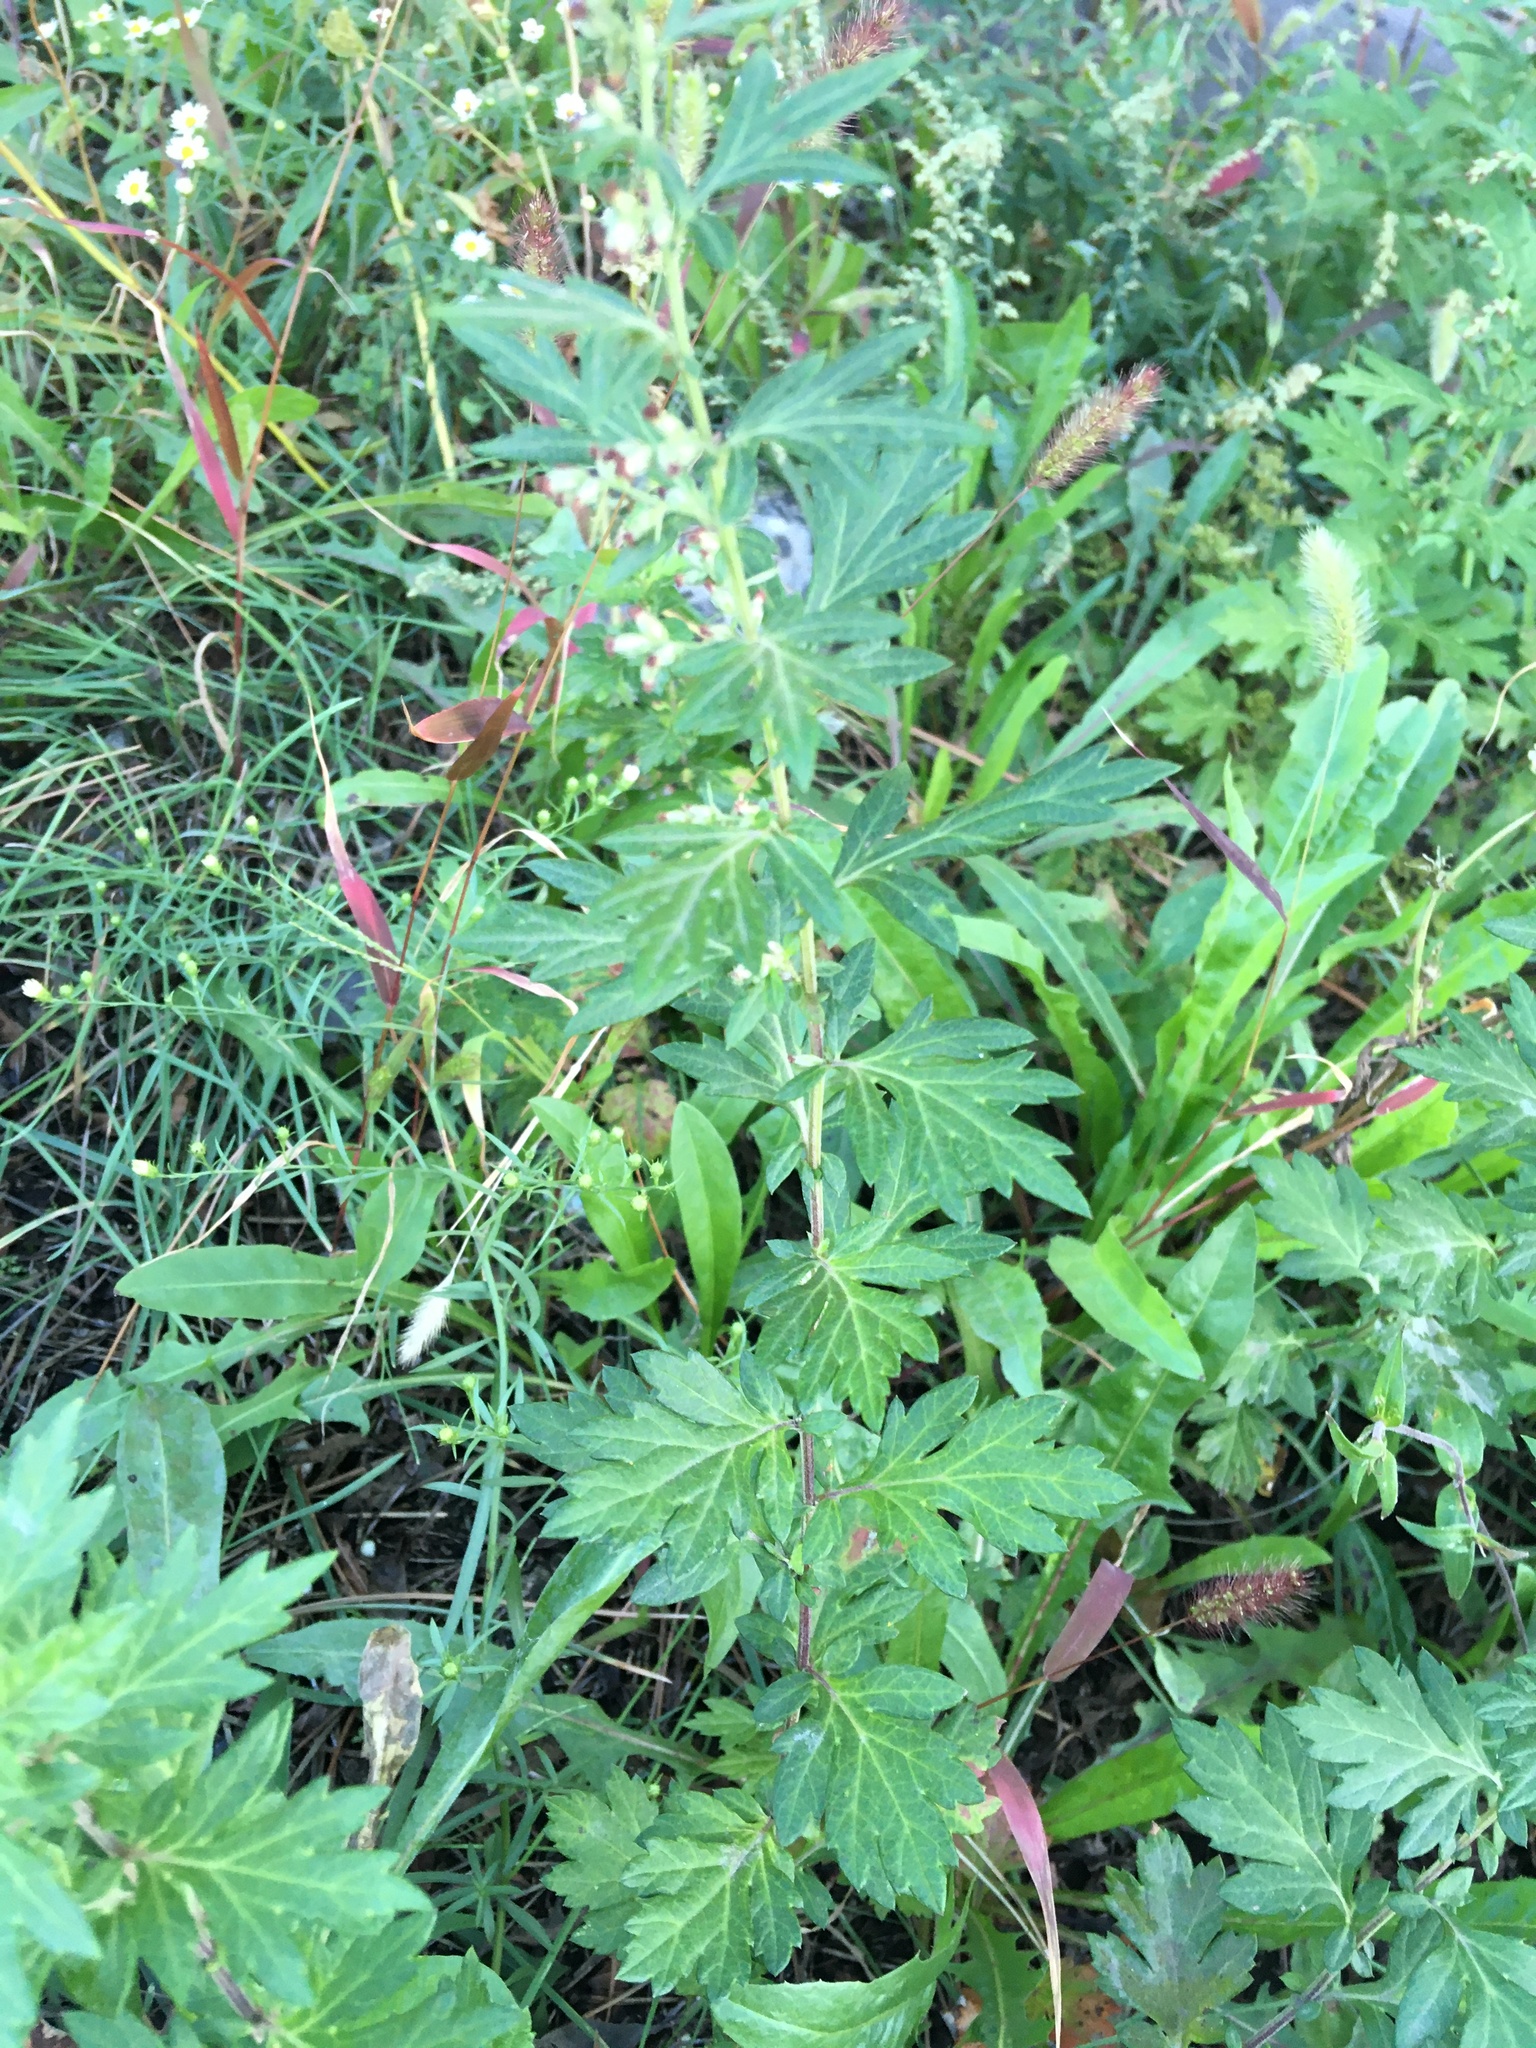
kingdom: Plantae
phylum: Tracheophyta
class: Magnoliopsida
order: Asterales
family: Asteraceae
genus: Artemisia
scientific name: Artemisia vulgaris
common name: Mugwort
